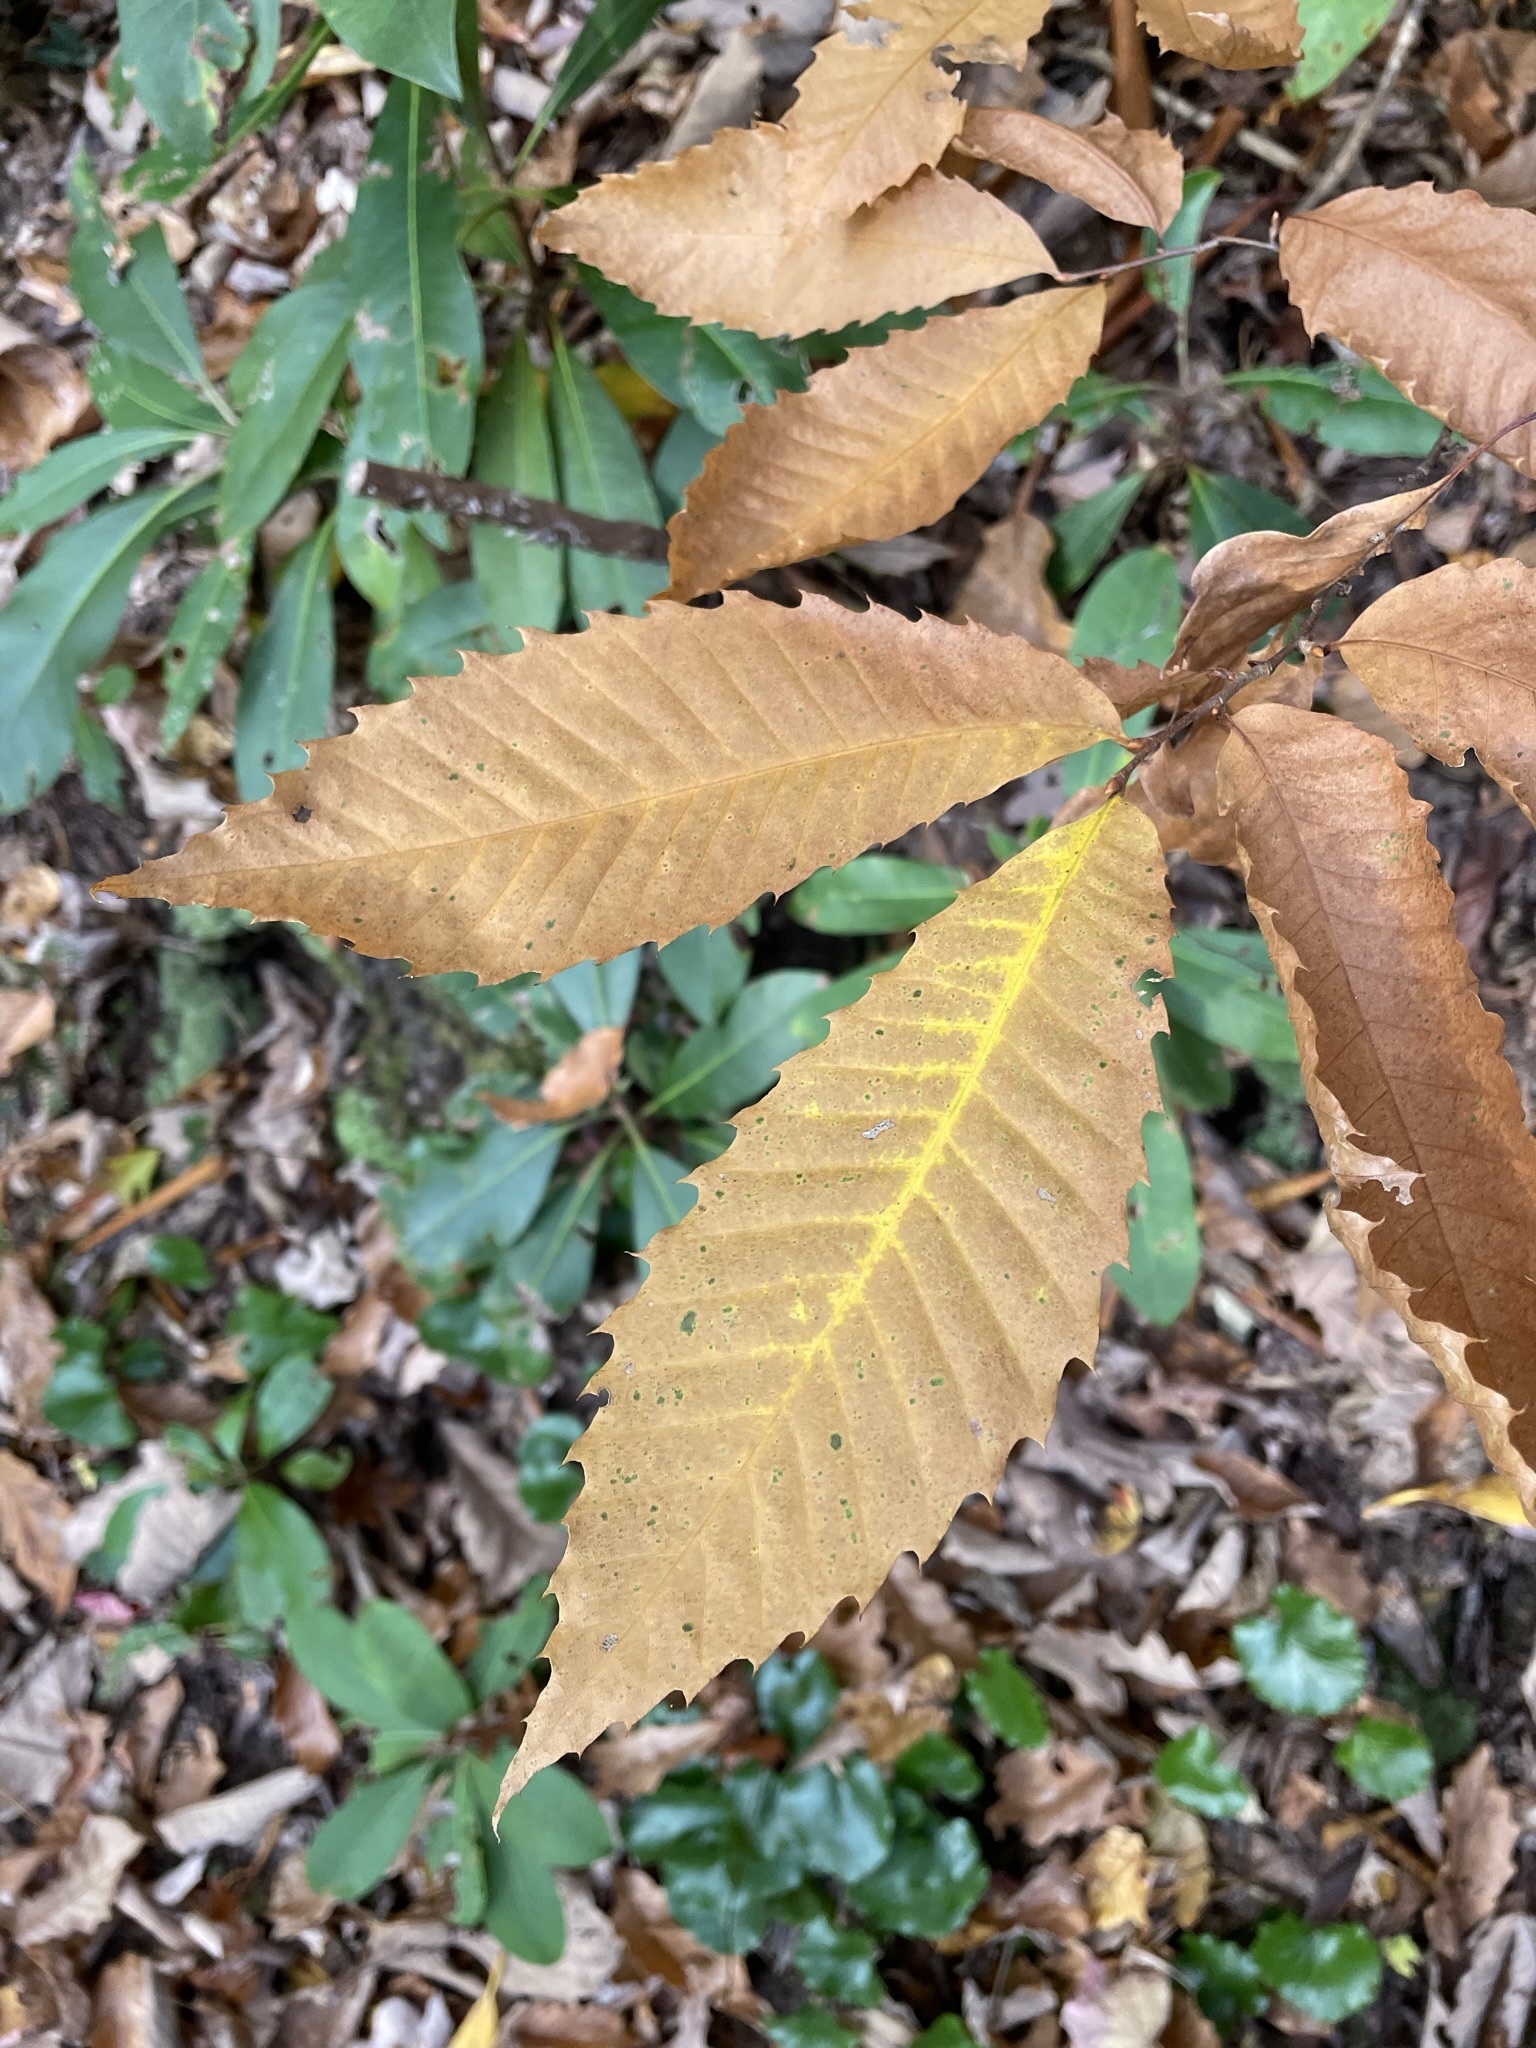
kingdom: Plantae
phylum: Tracheophyta
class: Magnoliopsida
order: Fagales
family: Fagaceae
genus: Castanea
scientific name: Castanea dentata
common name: American chestnut
